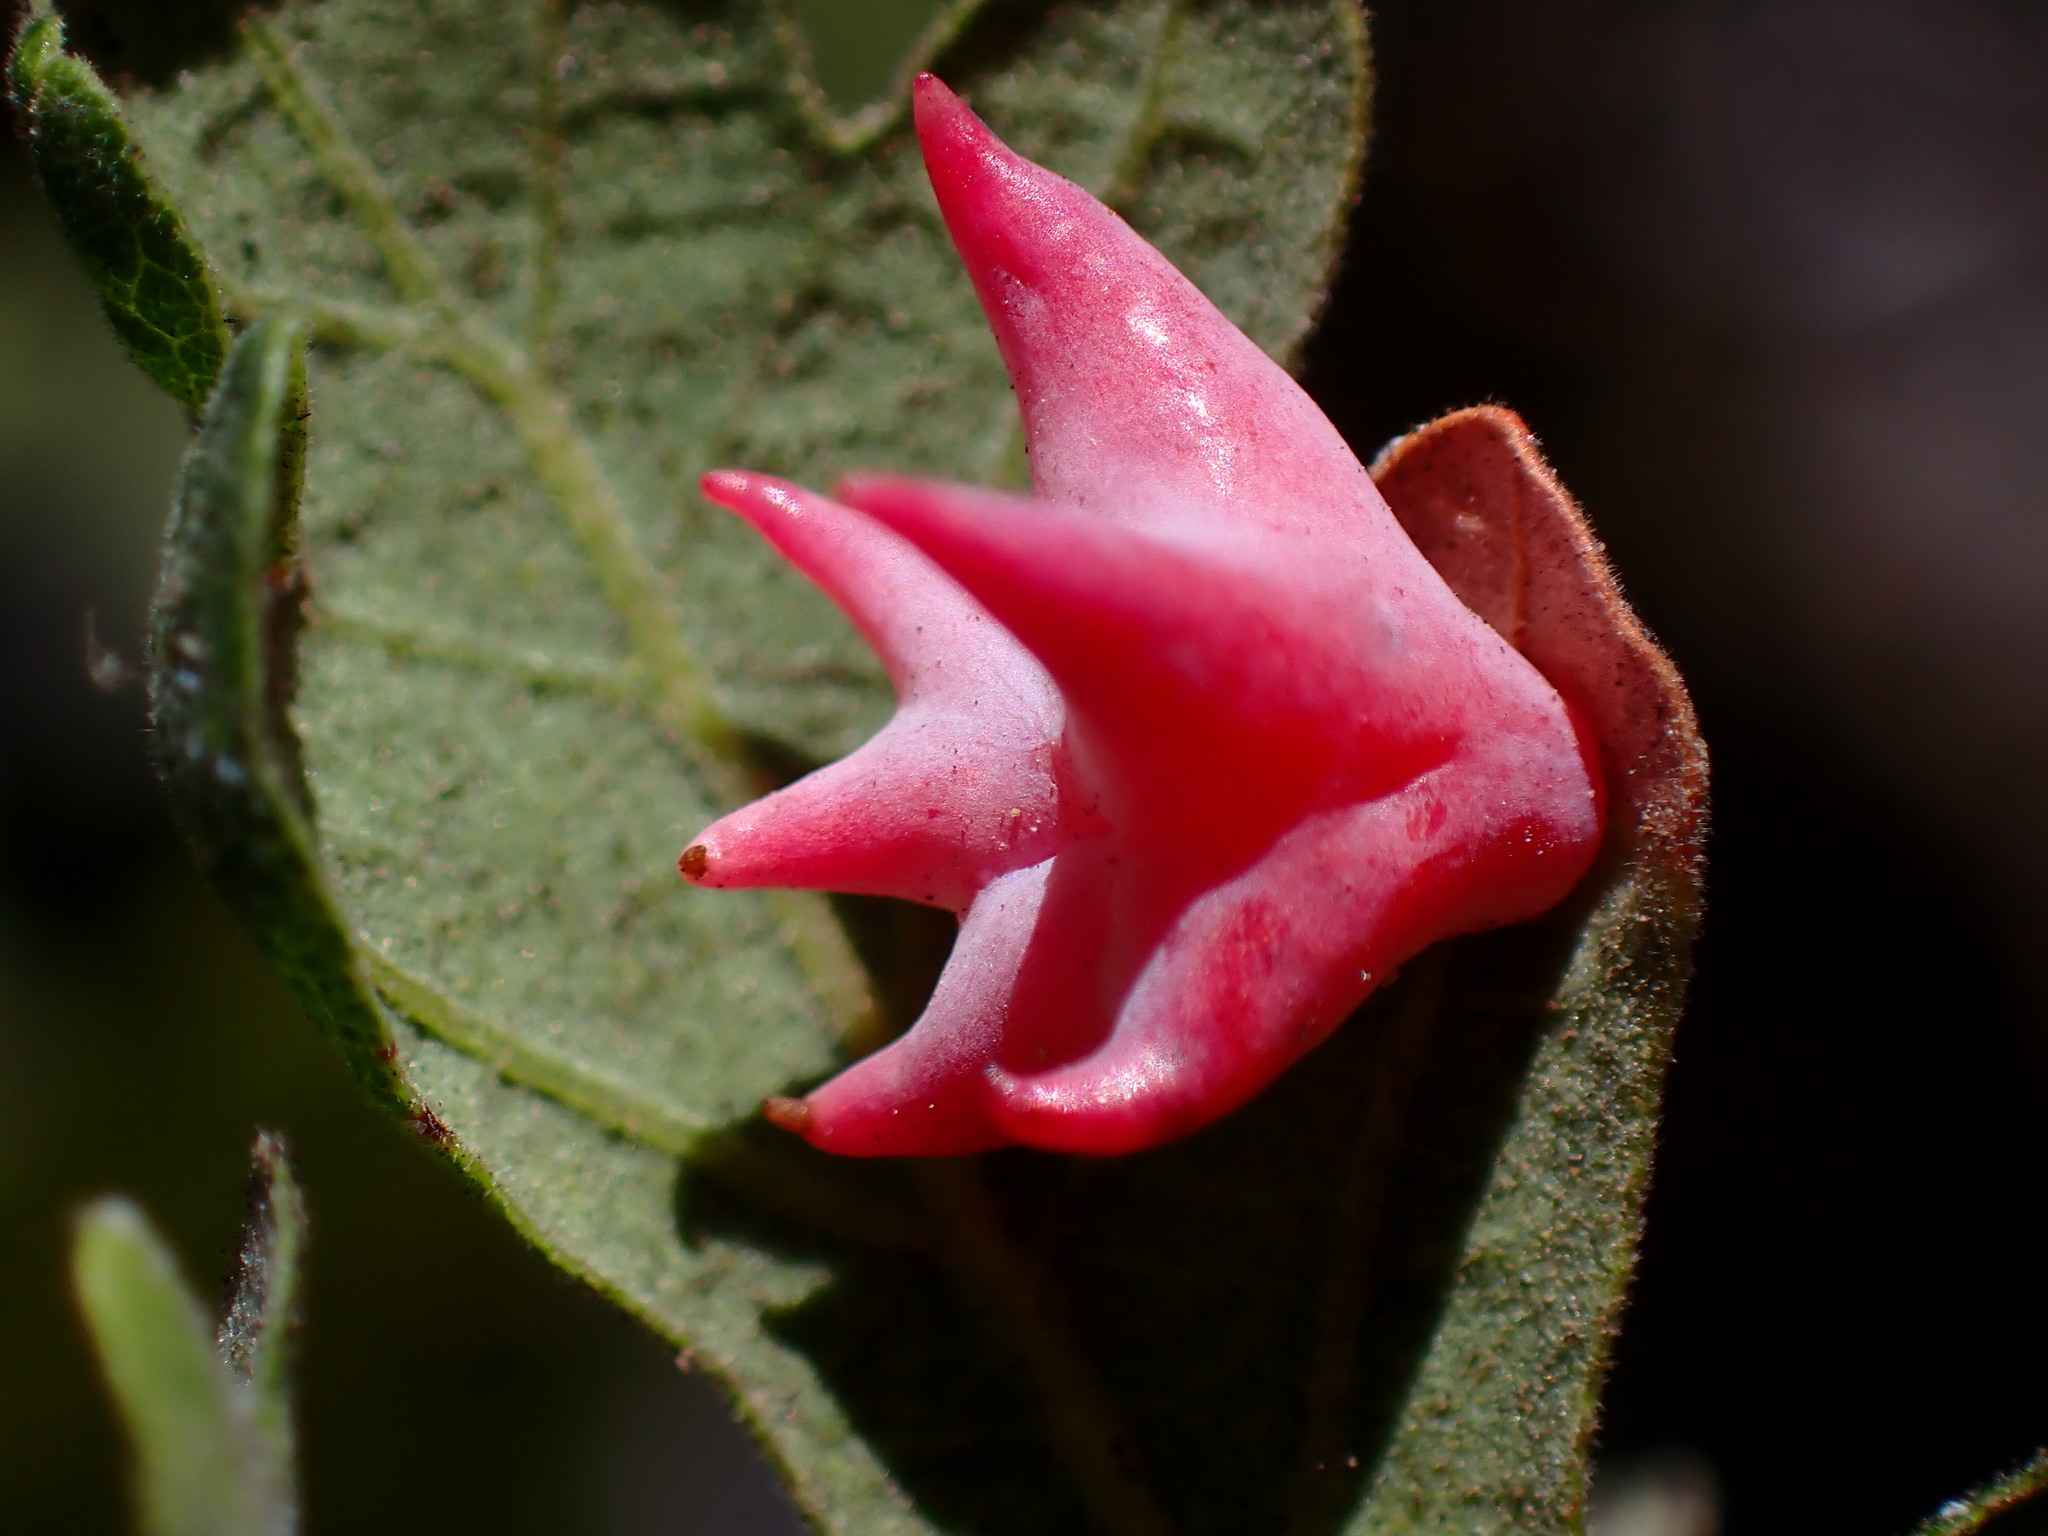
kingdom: Animalia
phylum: Arthropoda
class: Insecta
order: Hymenoptera
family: Cynipidae
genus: Cynips
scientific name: Cynips douglasi
